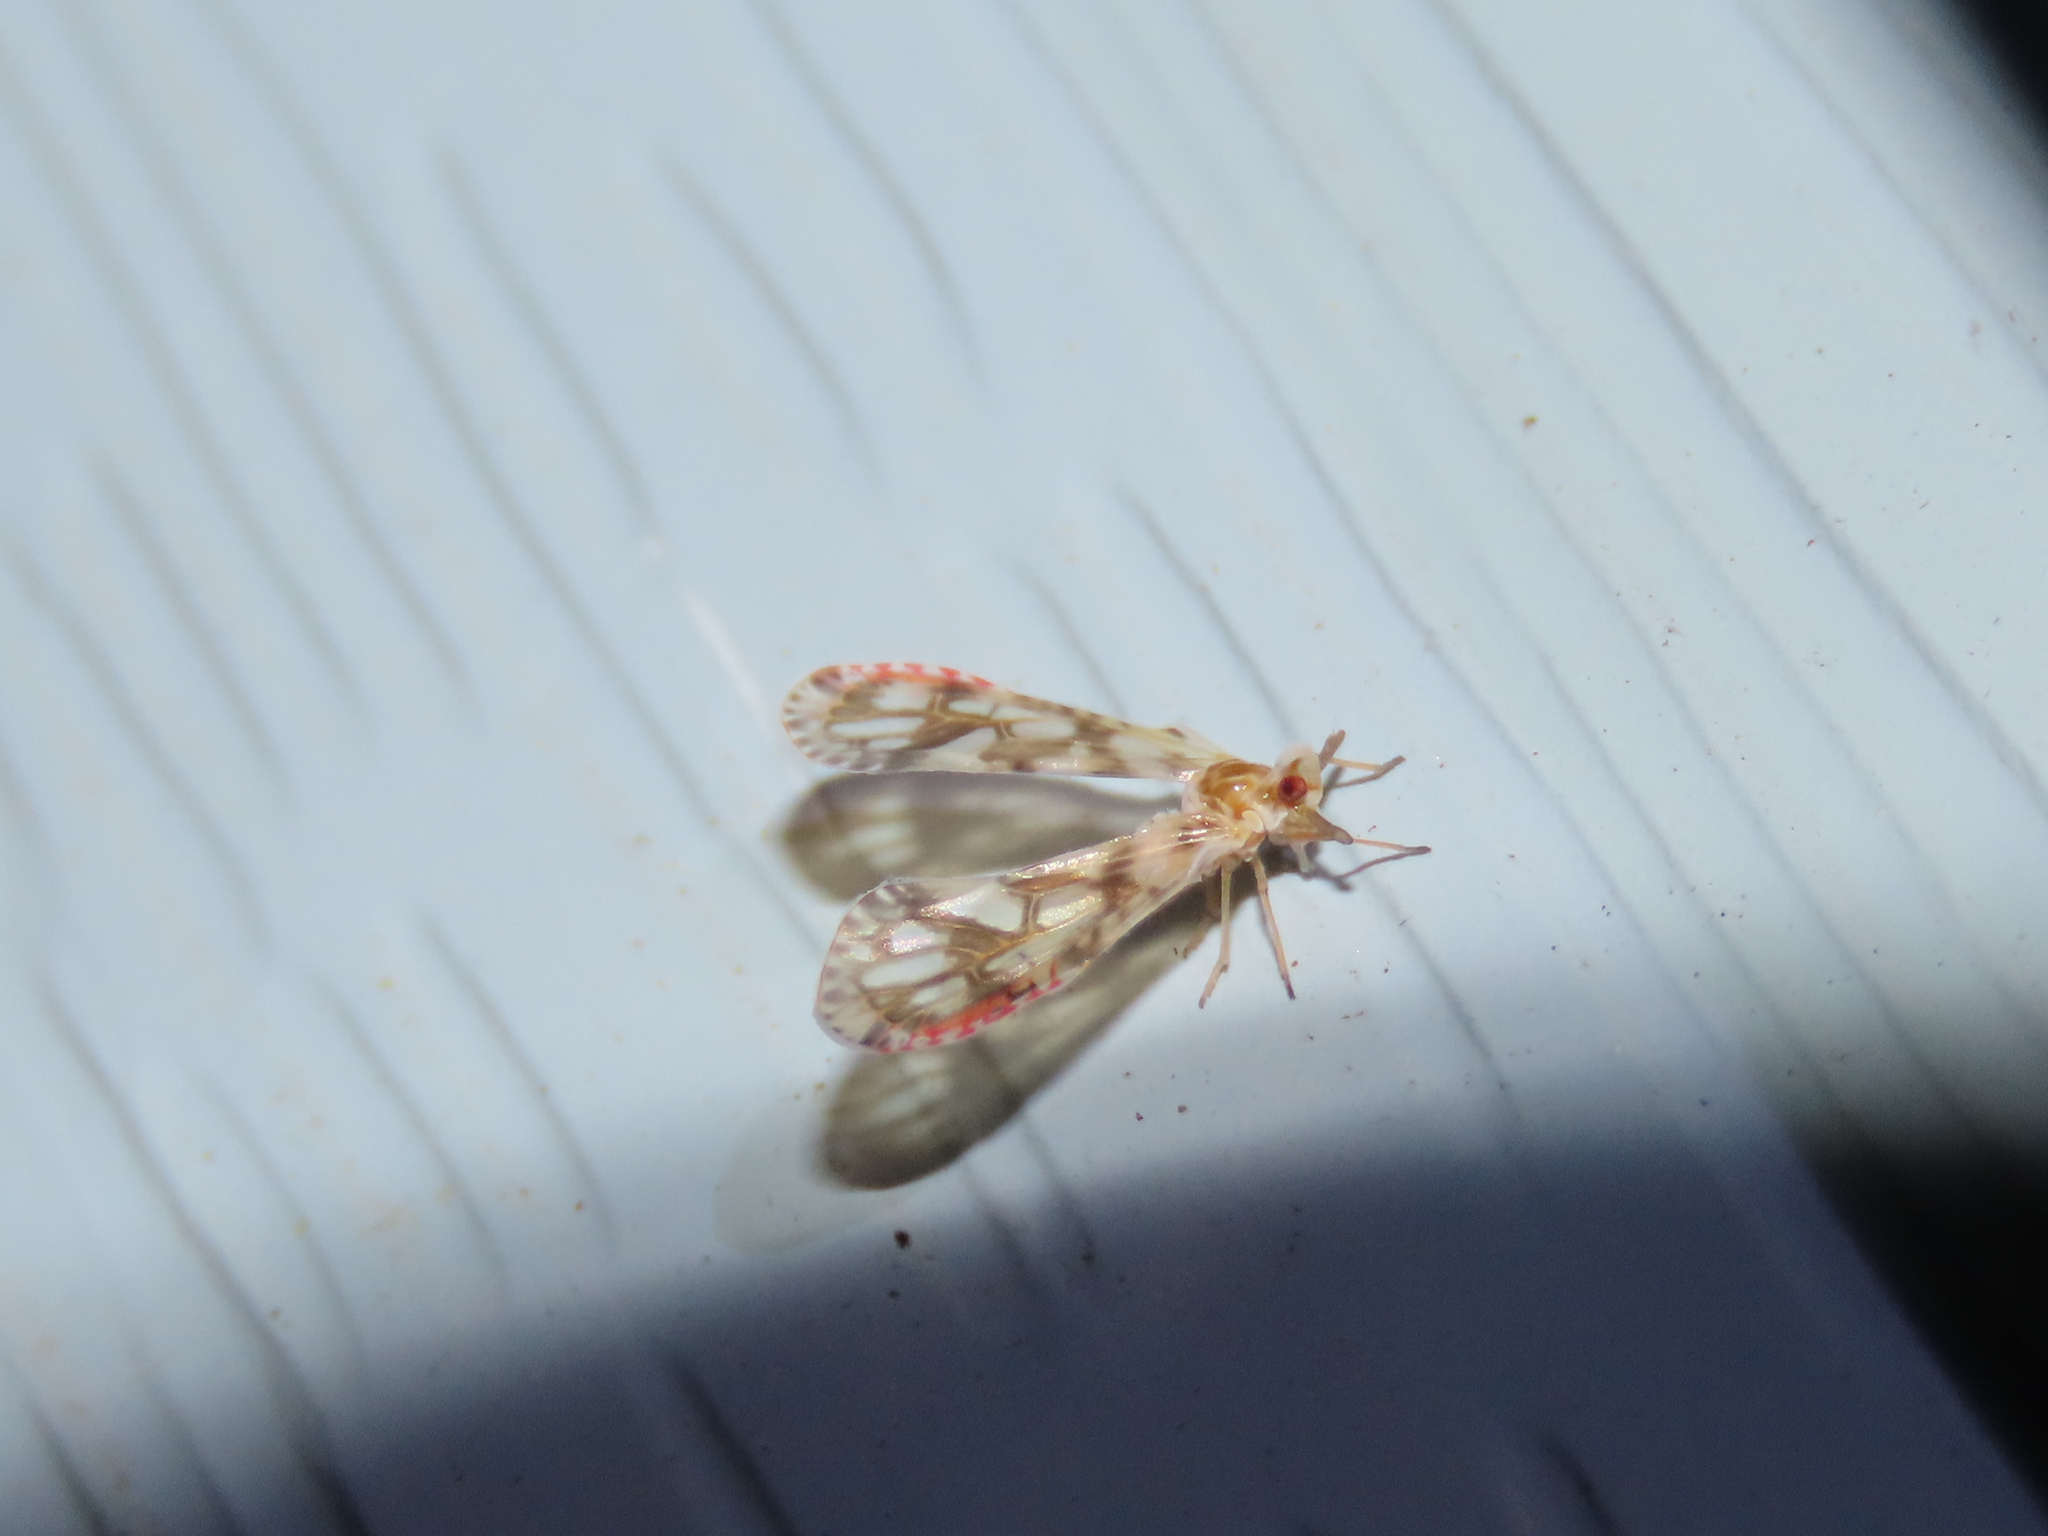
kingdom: Animalia
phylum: Arthropoda
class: Insecta
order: Hemiptera
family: Derbidae
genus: Anotia
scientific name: Anotia kirkaldyi
